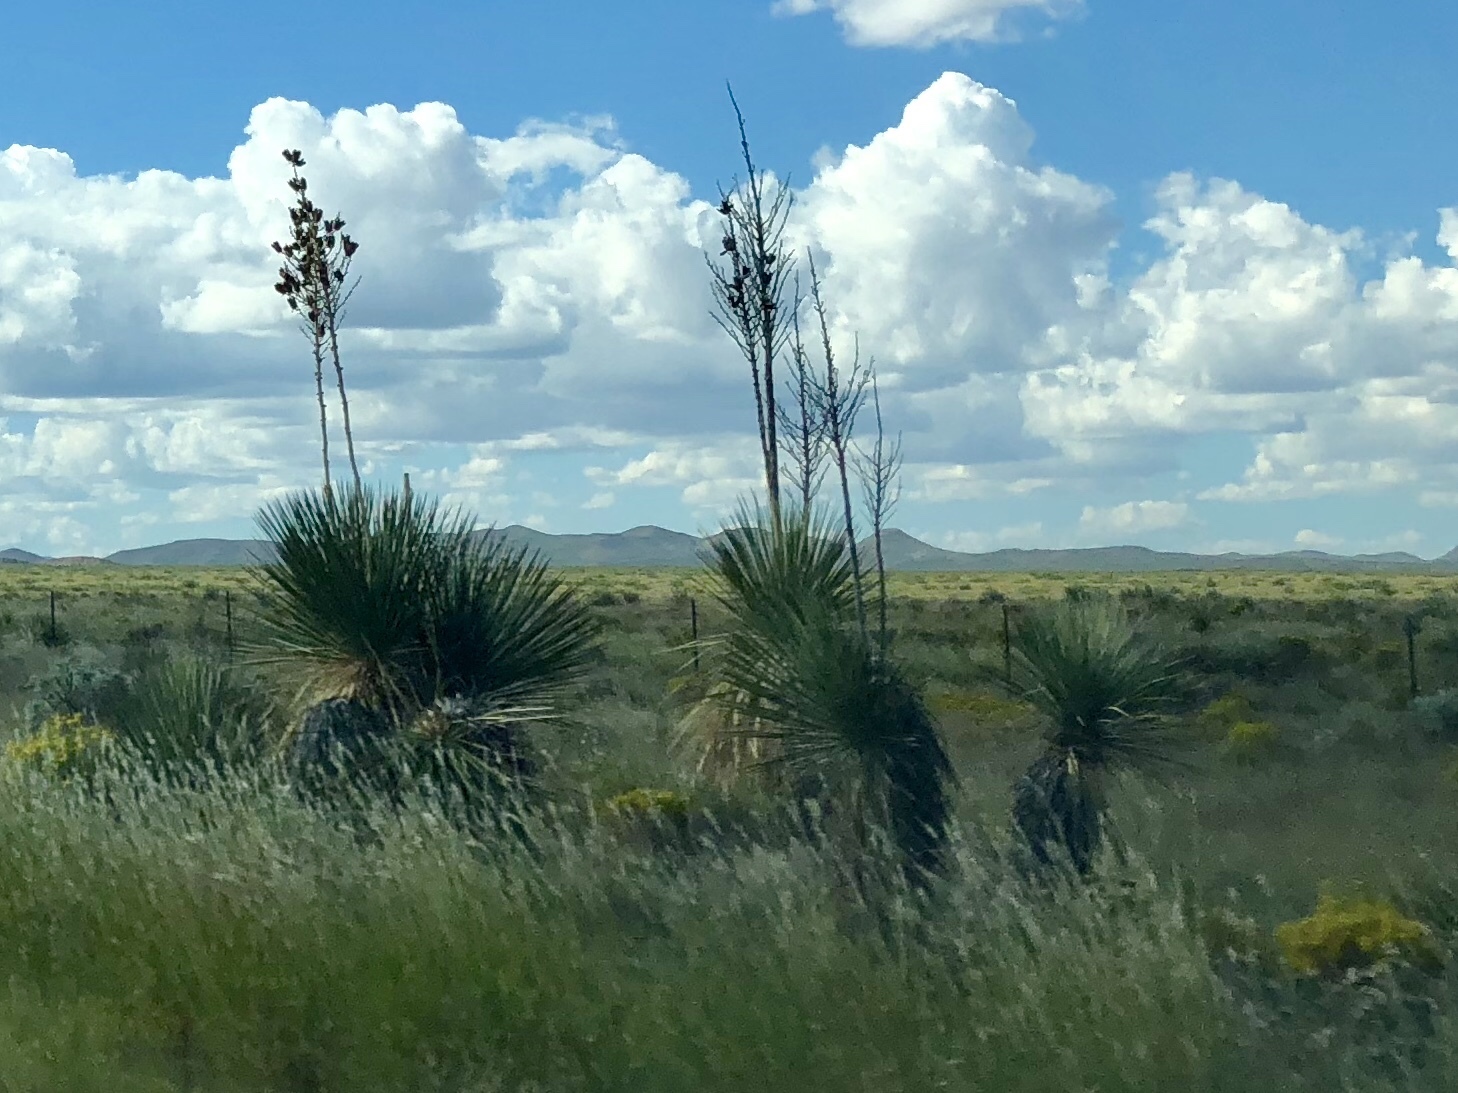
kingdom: Plantae
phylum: Tracheophyta
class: Liliopsida
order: Asparagales
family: Asparagaceae
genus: Yucca
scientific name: Yucca elata
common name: Palmella
